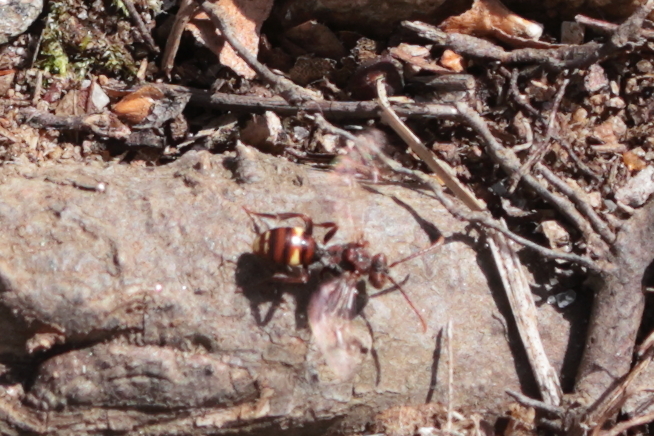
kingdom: Animalia
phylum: Arthropoda
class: Insecta
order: Hymenoptera
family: Apidae
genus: Nomada
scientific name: Nomada gracilis
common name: Slender cuckoo nomad bee
